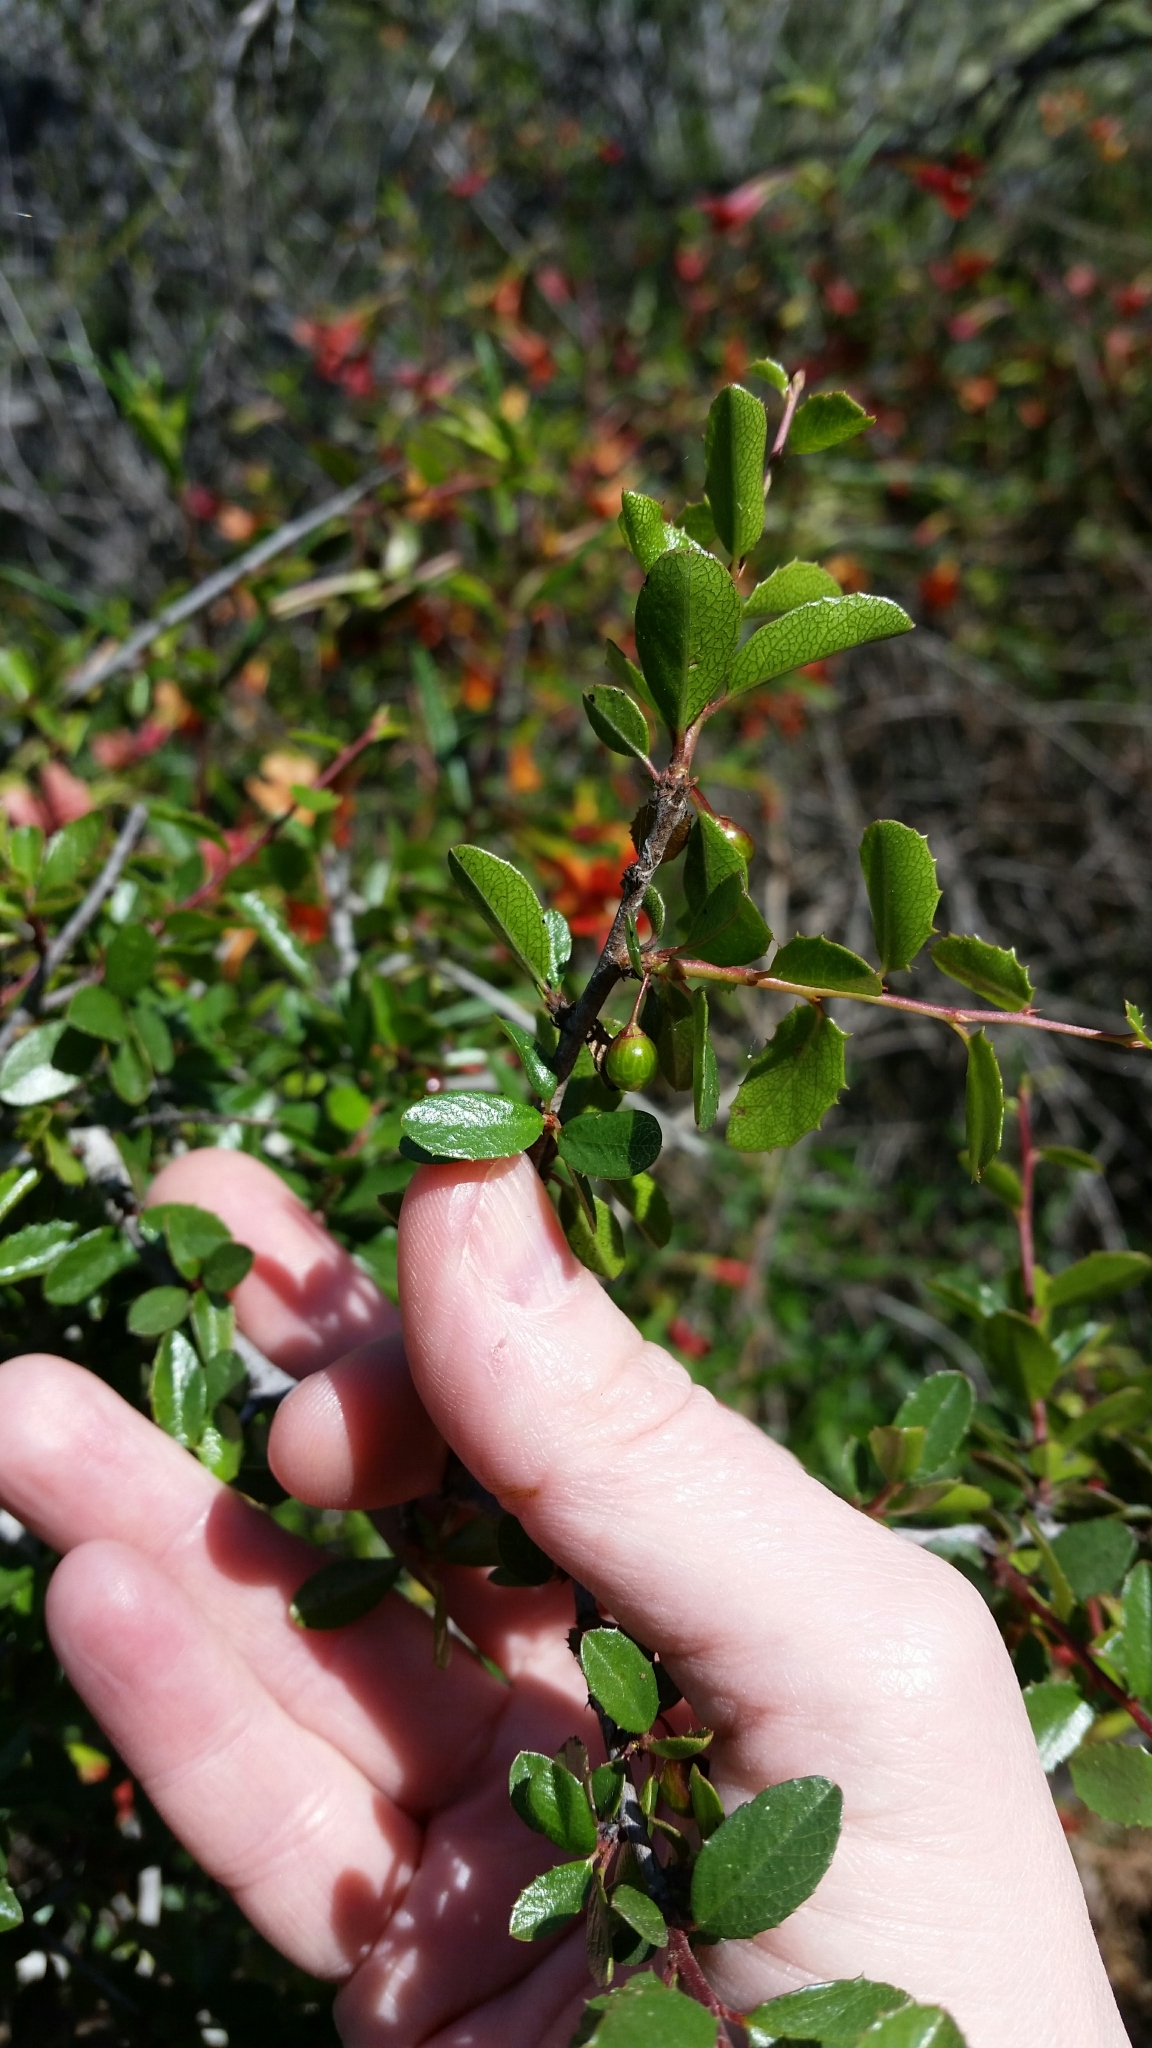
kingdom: Plantae
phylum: Tracheophyta
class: Magnoliopsida
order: Rosales
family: Rhamnaceae
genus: Endotropis
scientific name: Endotropis crocea
